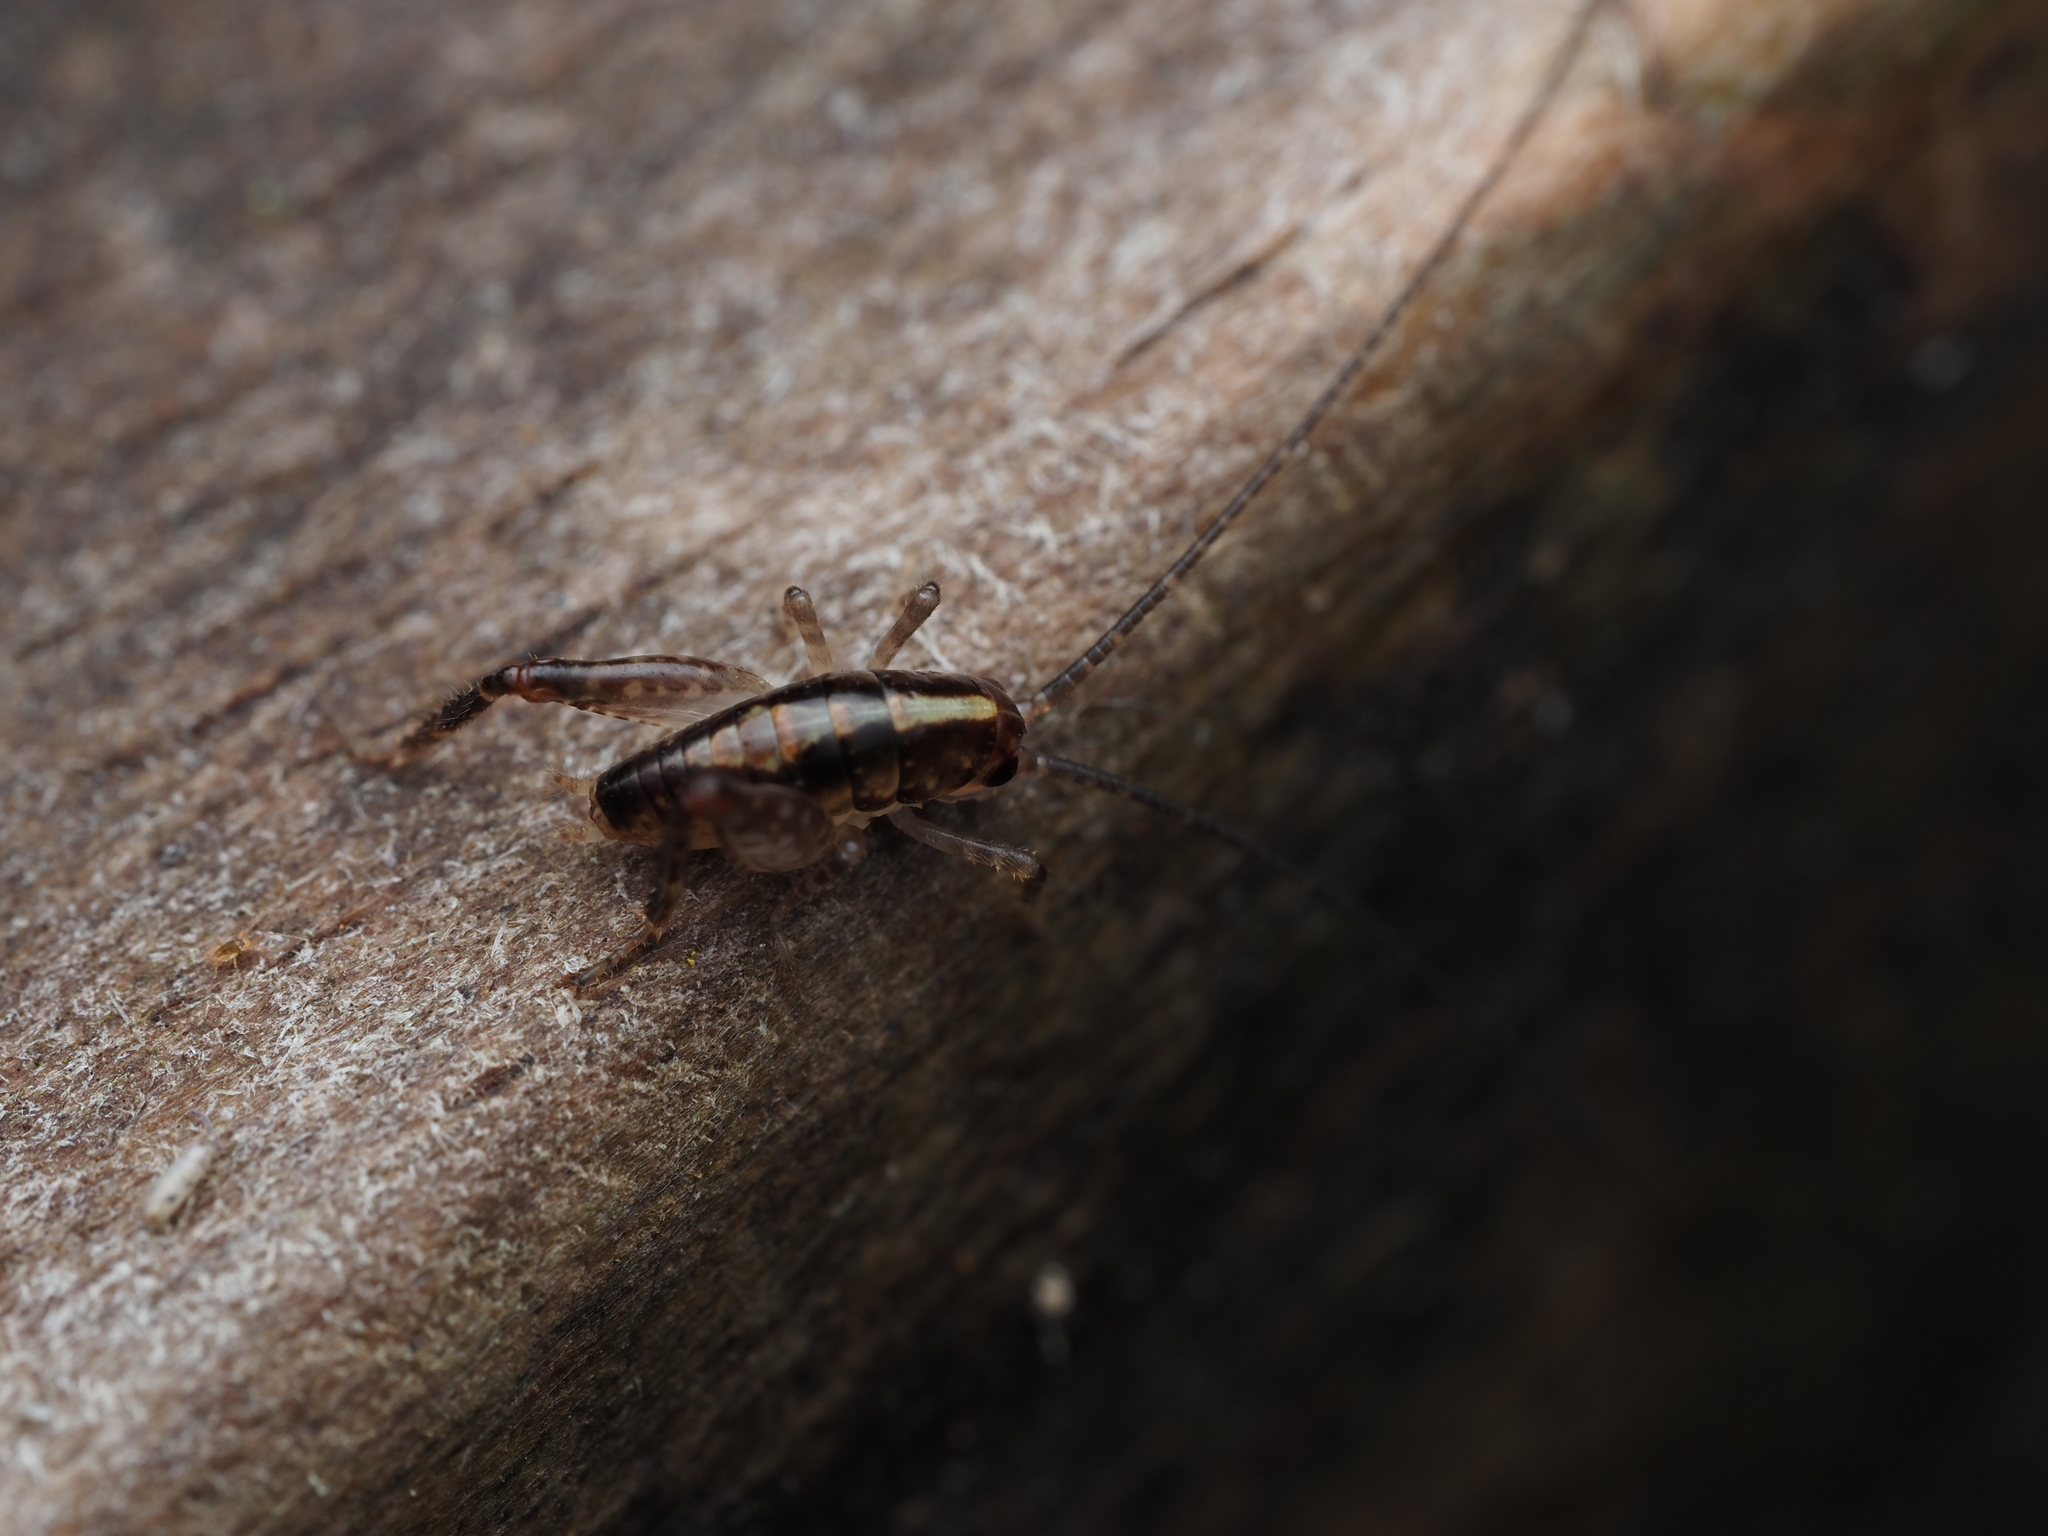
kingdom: Animalia
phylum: Arthropoda
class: Insecta
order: Orthoptera
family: Rhaphidophoridae
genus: Talitropsis
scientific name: Talitropsis sedilloti
